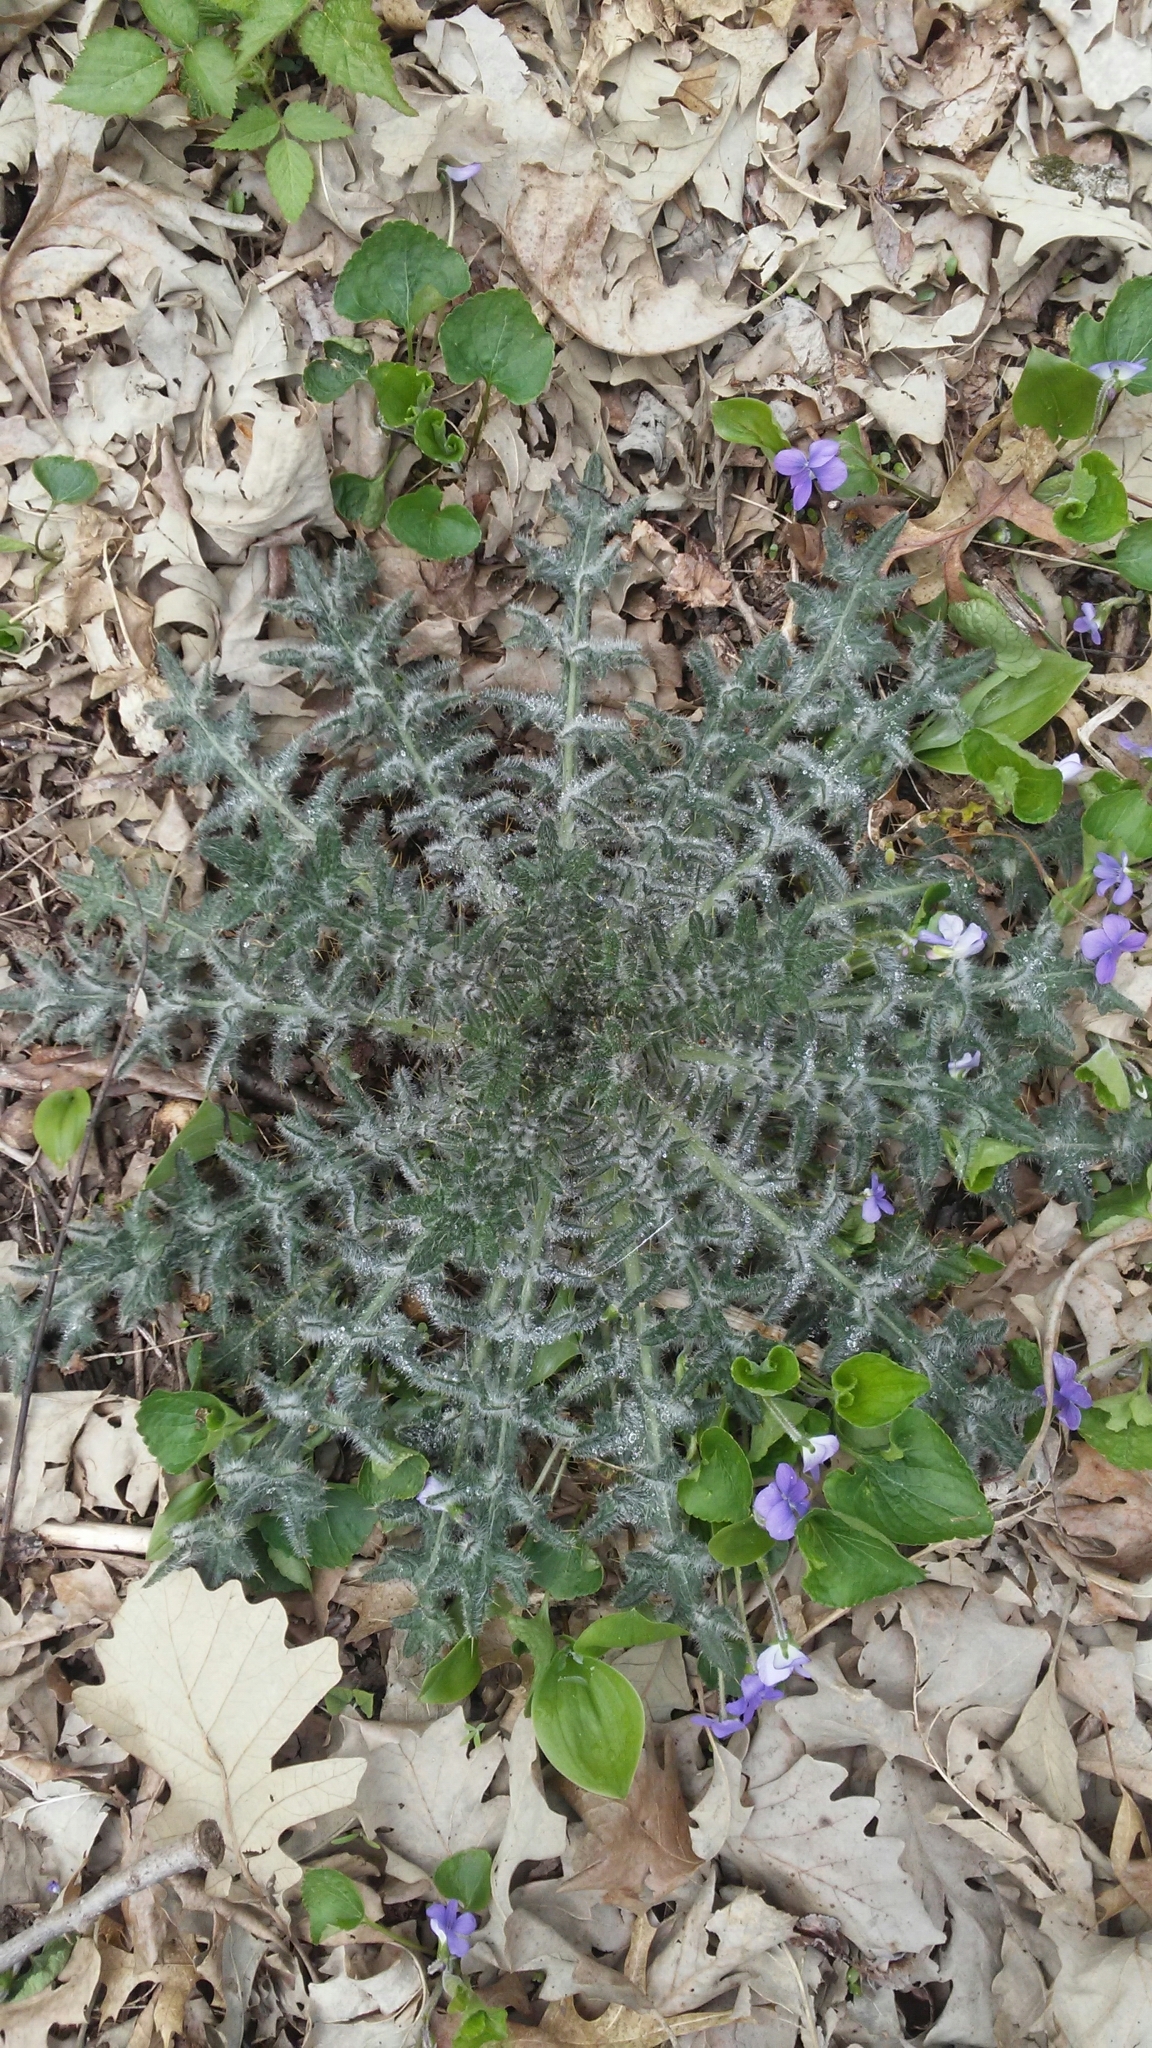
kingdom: Plantae
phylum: Tracheophyta
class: Magnoliopsida
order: Asterales
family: Asteraceae
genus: Cirsium
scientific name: Cirsium vulgare
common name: Bull thistle
